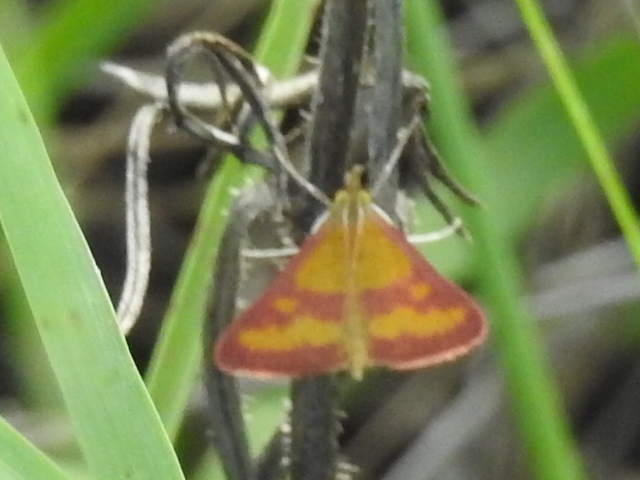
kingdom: Animalia
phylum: Arthropoda
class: Insecta
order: Lepidoptera
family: Crambidae
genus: Pyrausta
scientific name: Pyrausta laticlavia
